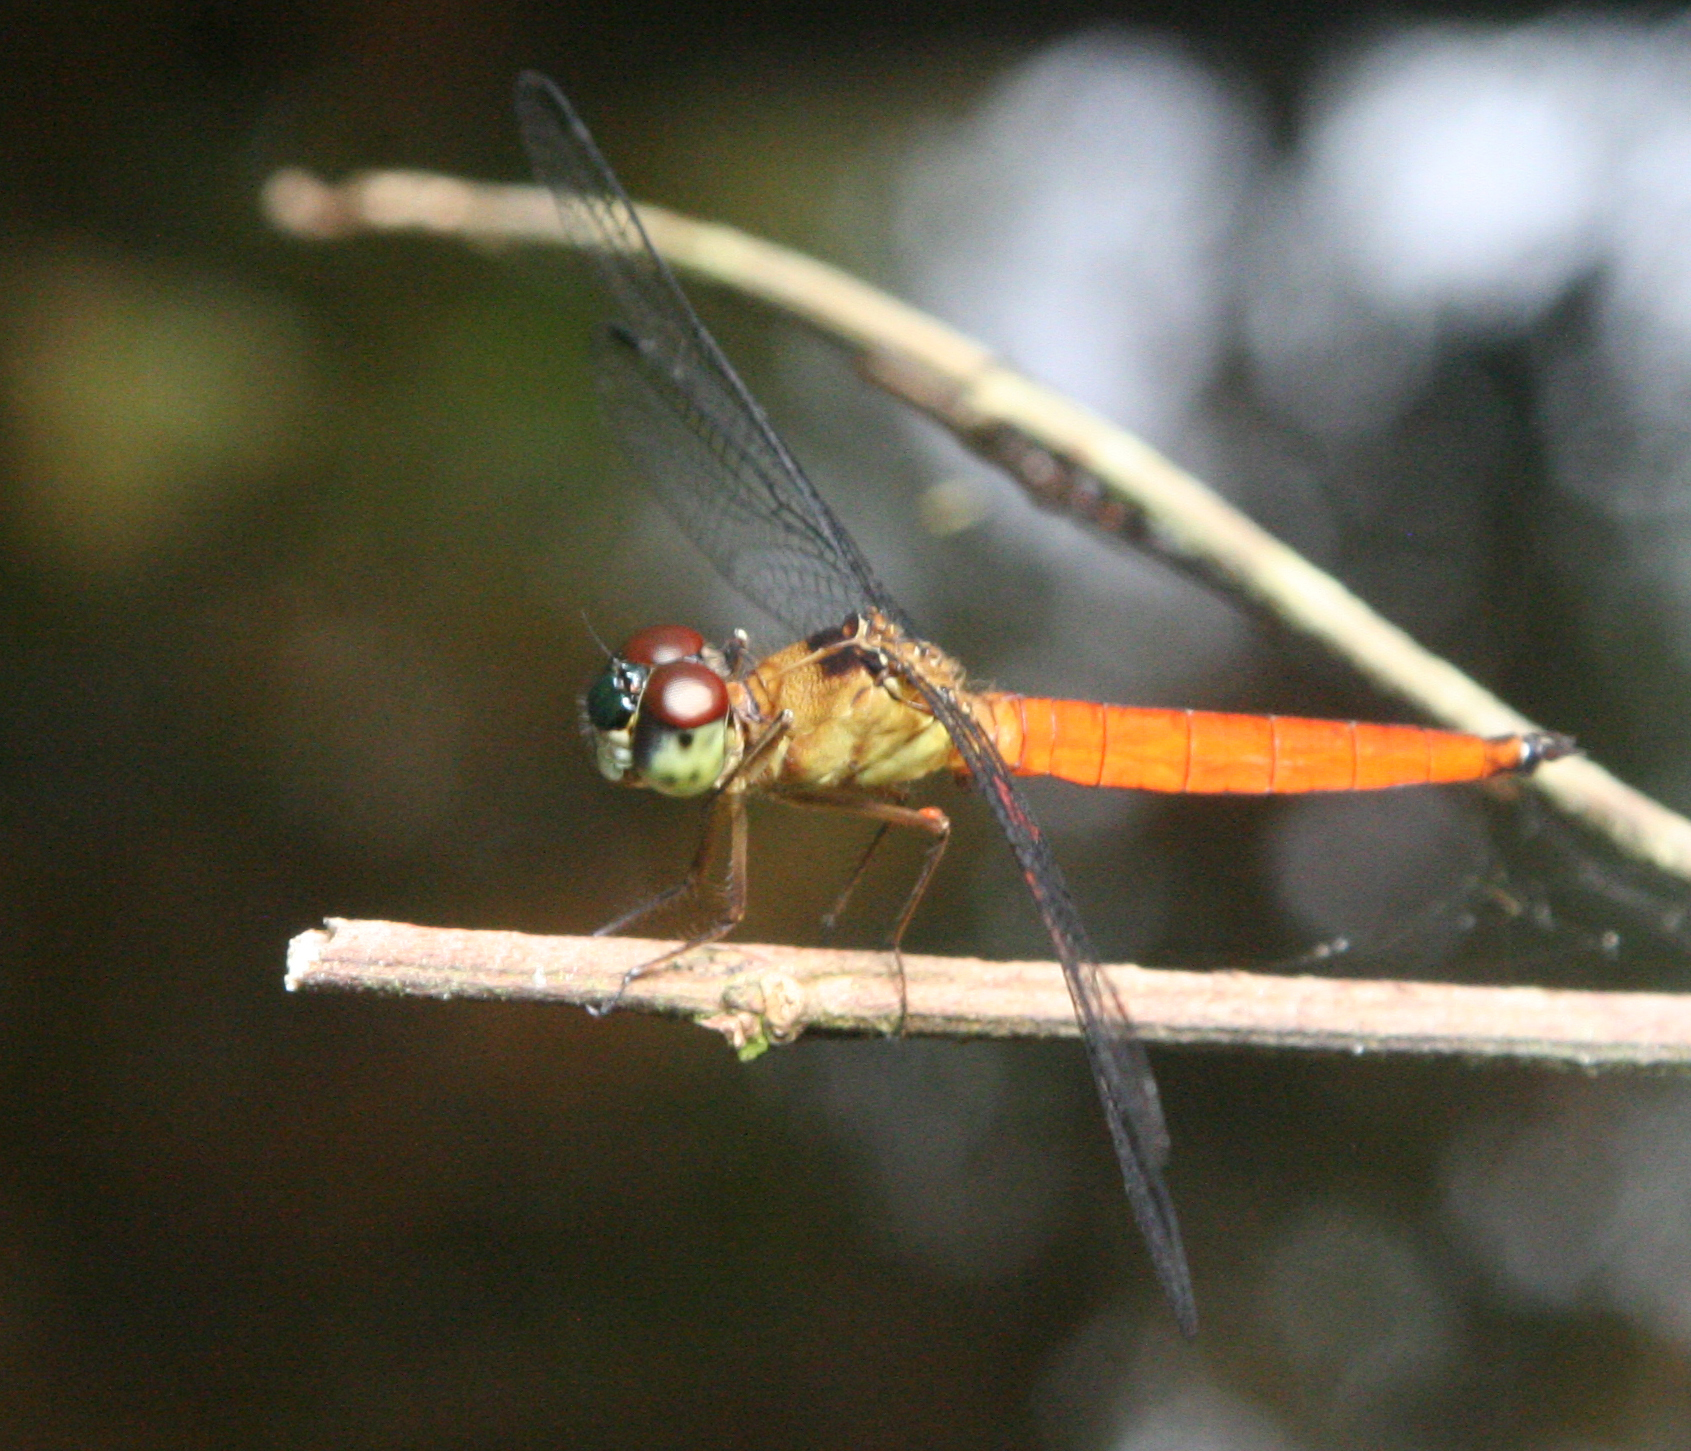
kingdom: Animalia
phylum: Arthropoda
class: Insecta
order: Odonata
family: Libellulidae
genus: Orchithemis
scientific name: Orchithemis pulcherrima
